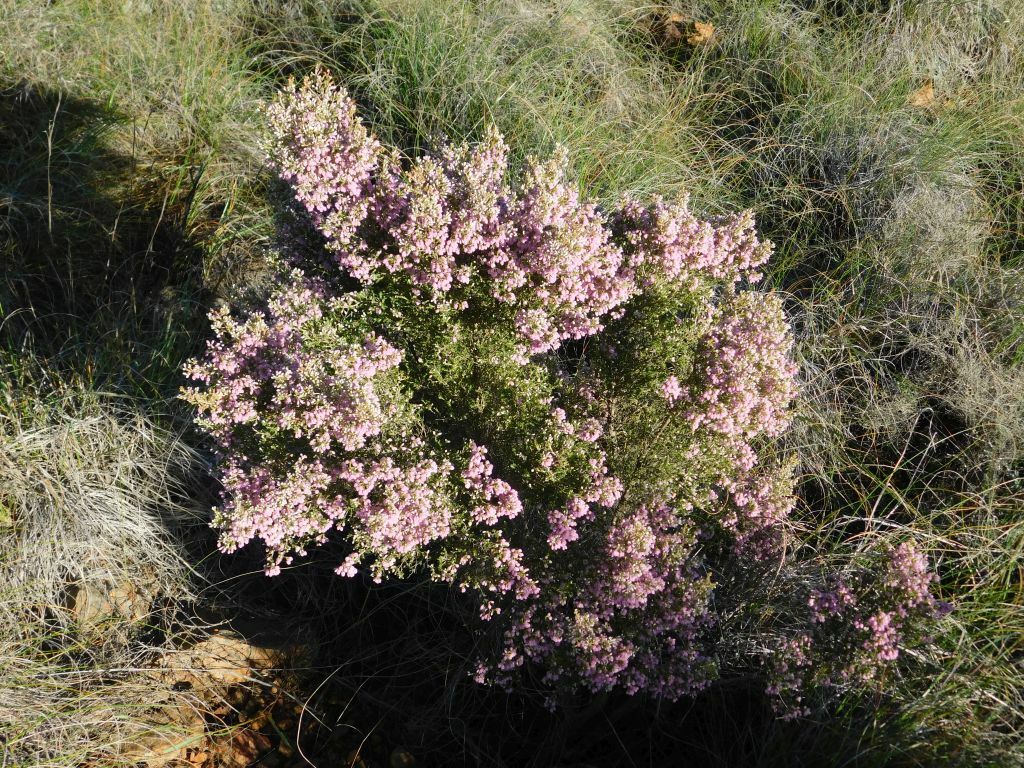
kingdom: Plantae
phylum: Tracheophyta
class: Magnoliopsida
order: Ericales
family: Ericaceae
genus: Erica
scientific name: Erica tomentosa
